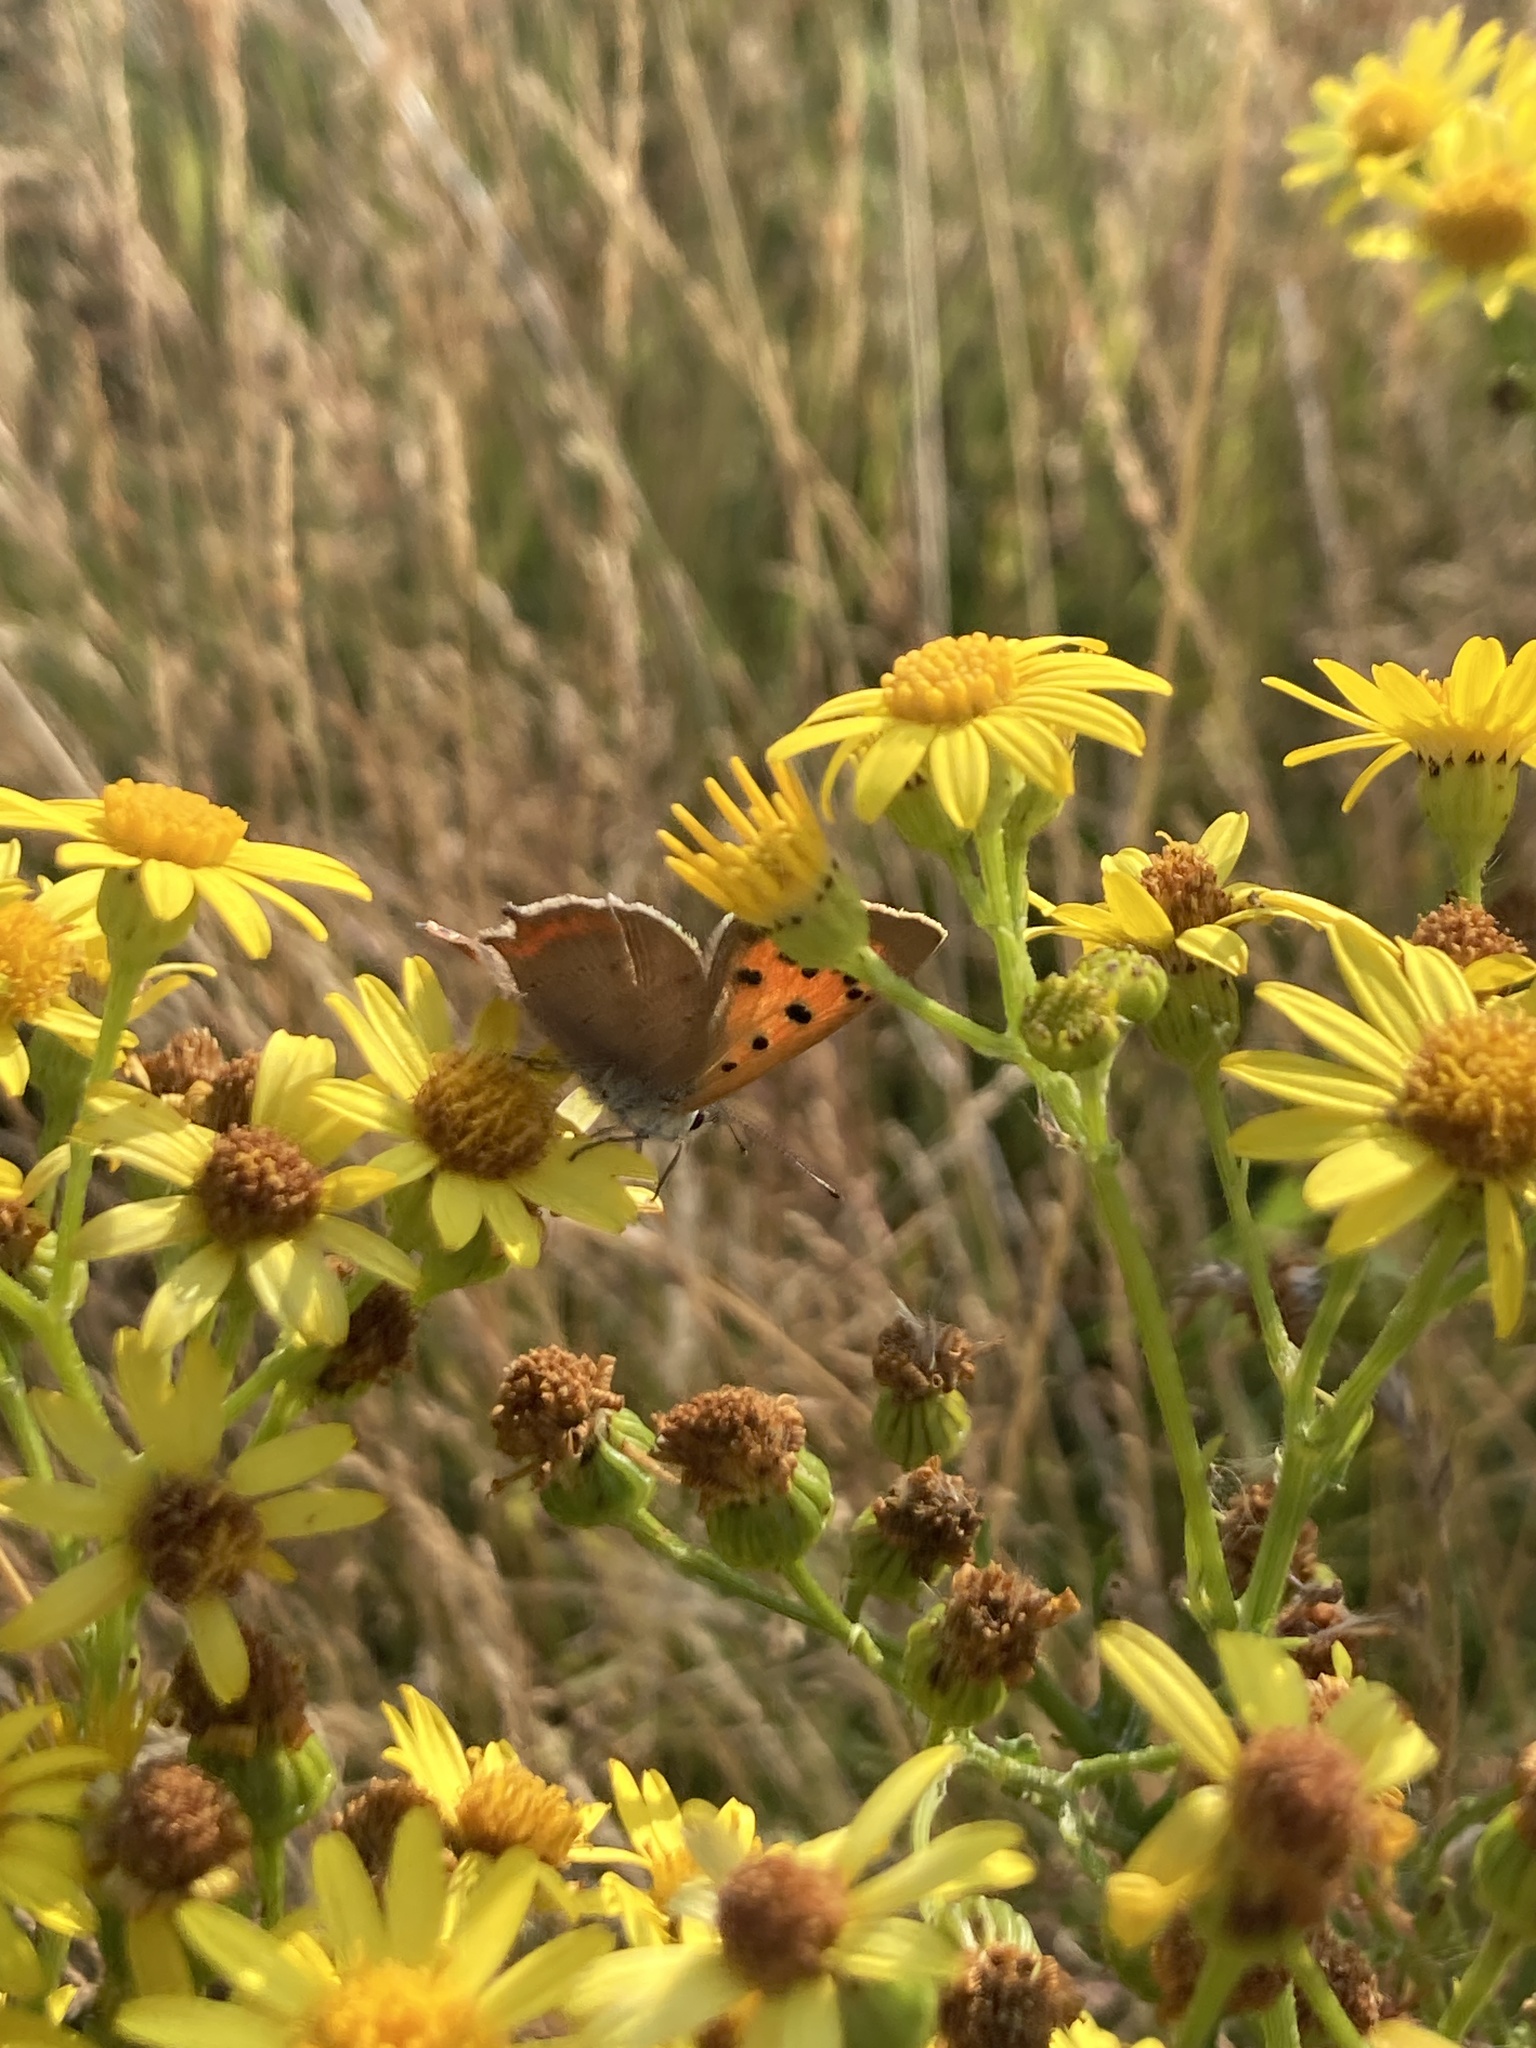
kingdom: Animalia
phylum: Arthropoda
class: Insecta
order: Lepidoptera
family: Lycaenidae
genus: Lycaena
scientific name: Lycaena phlaeas
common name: Small copper
